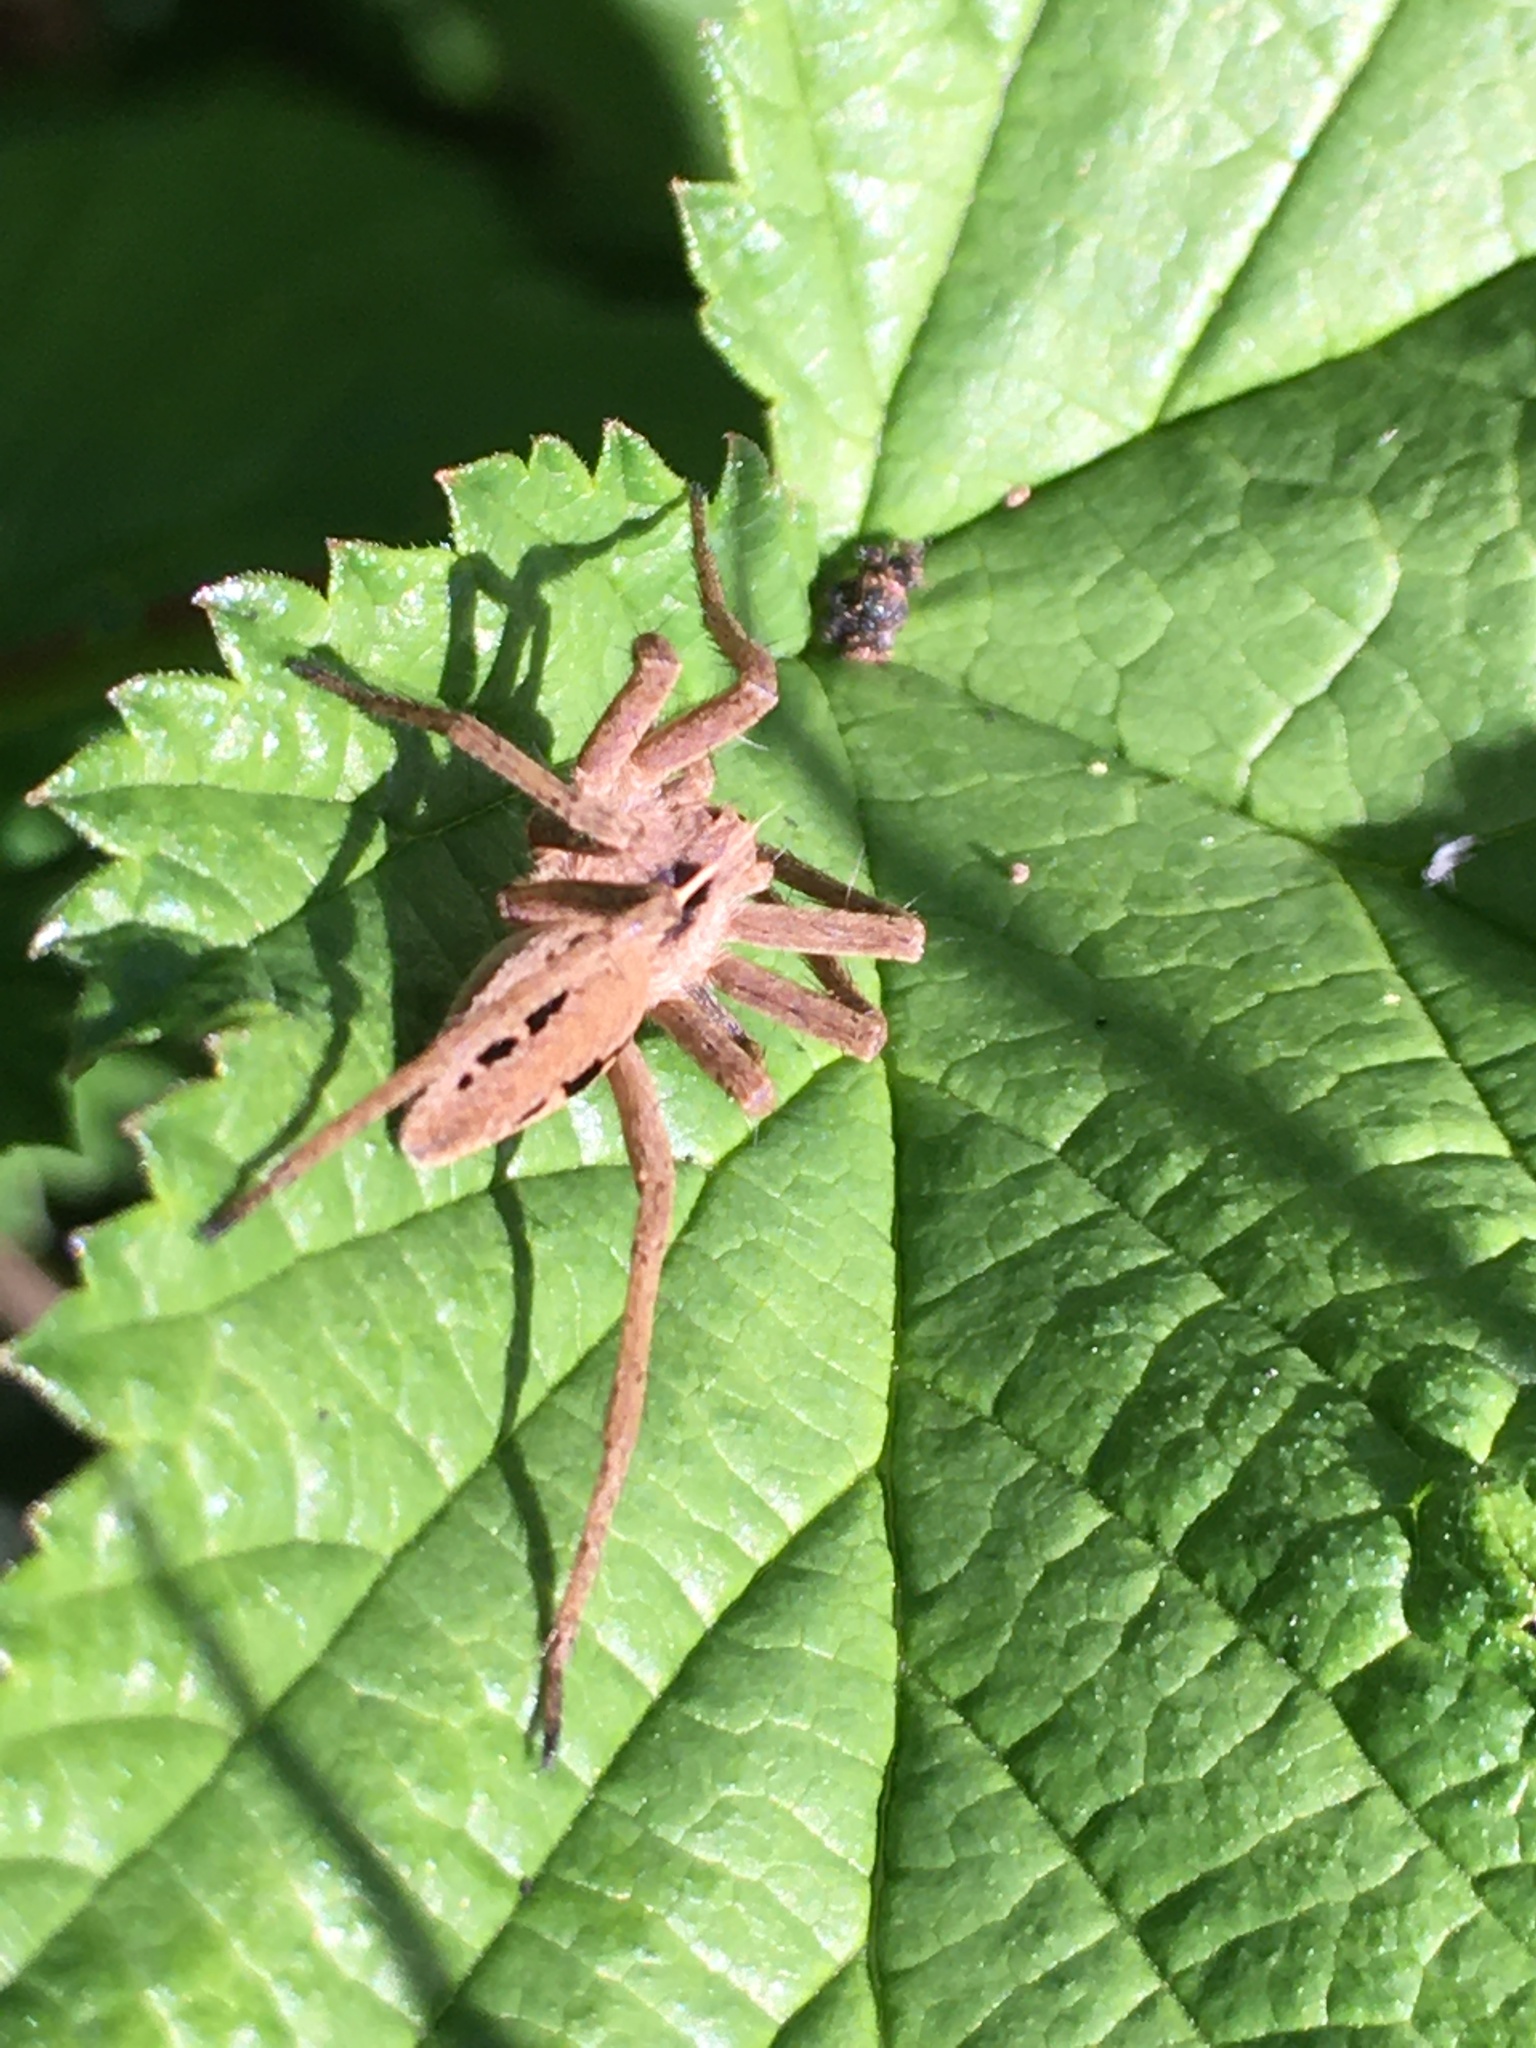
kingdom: Animalia
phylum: Arthropoda
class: Arachnida
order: Araneae
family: Pisauridae
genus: Pisaura
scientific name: Pisaura mirabilis
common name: Tent spider
